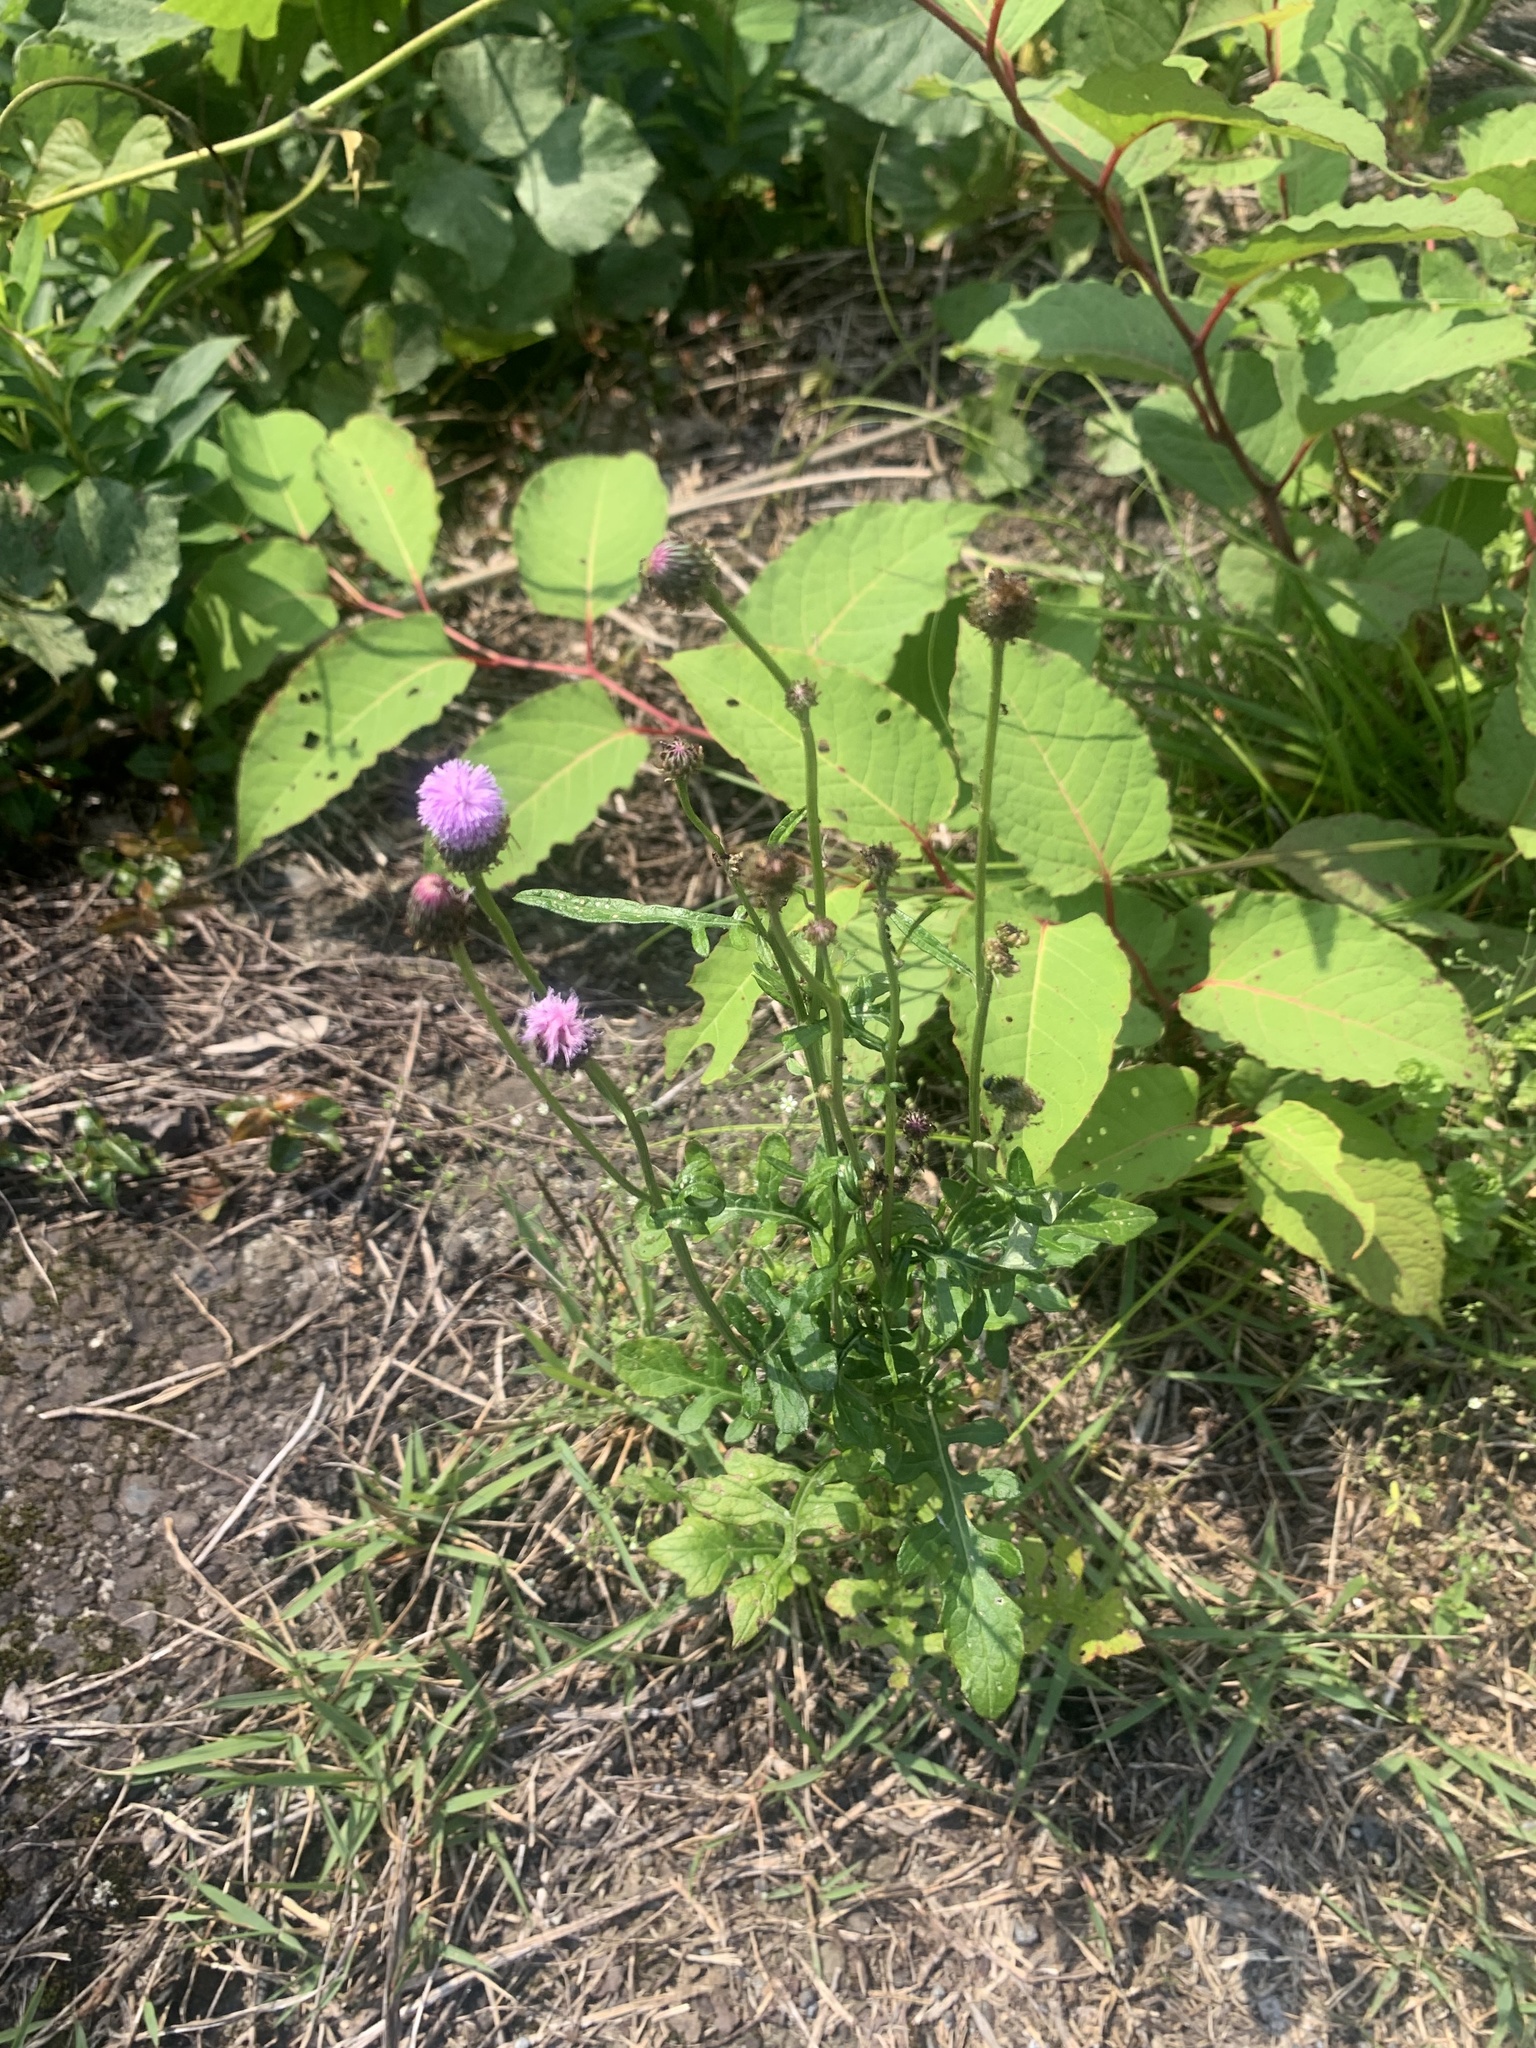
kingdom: Plantae
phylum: Tracheophyta
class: Magnoliopsida
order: Asterales
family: Asteraceae
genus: Saussurea
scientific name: Saussurea lyrata
